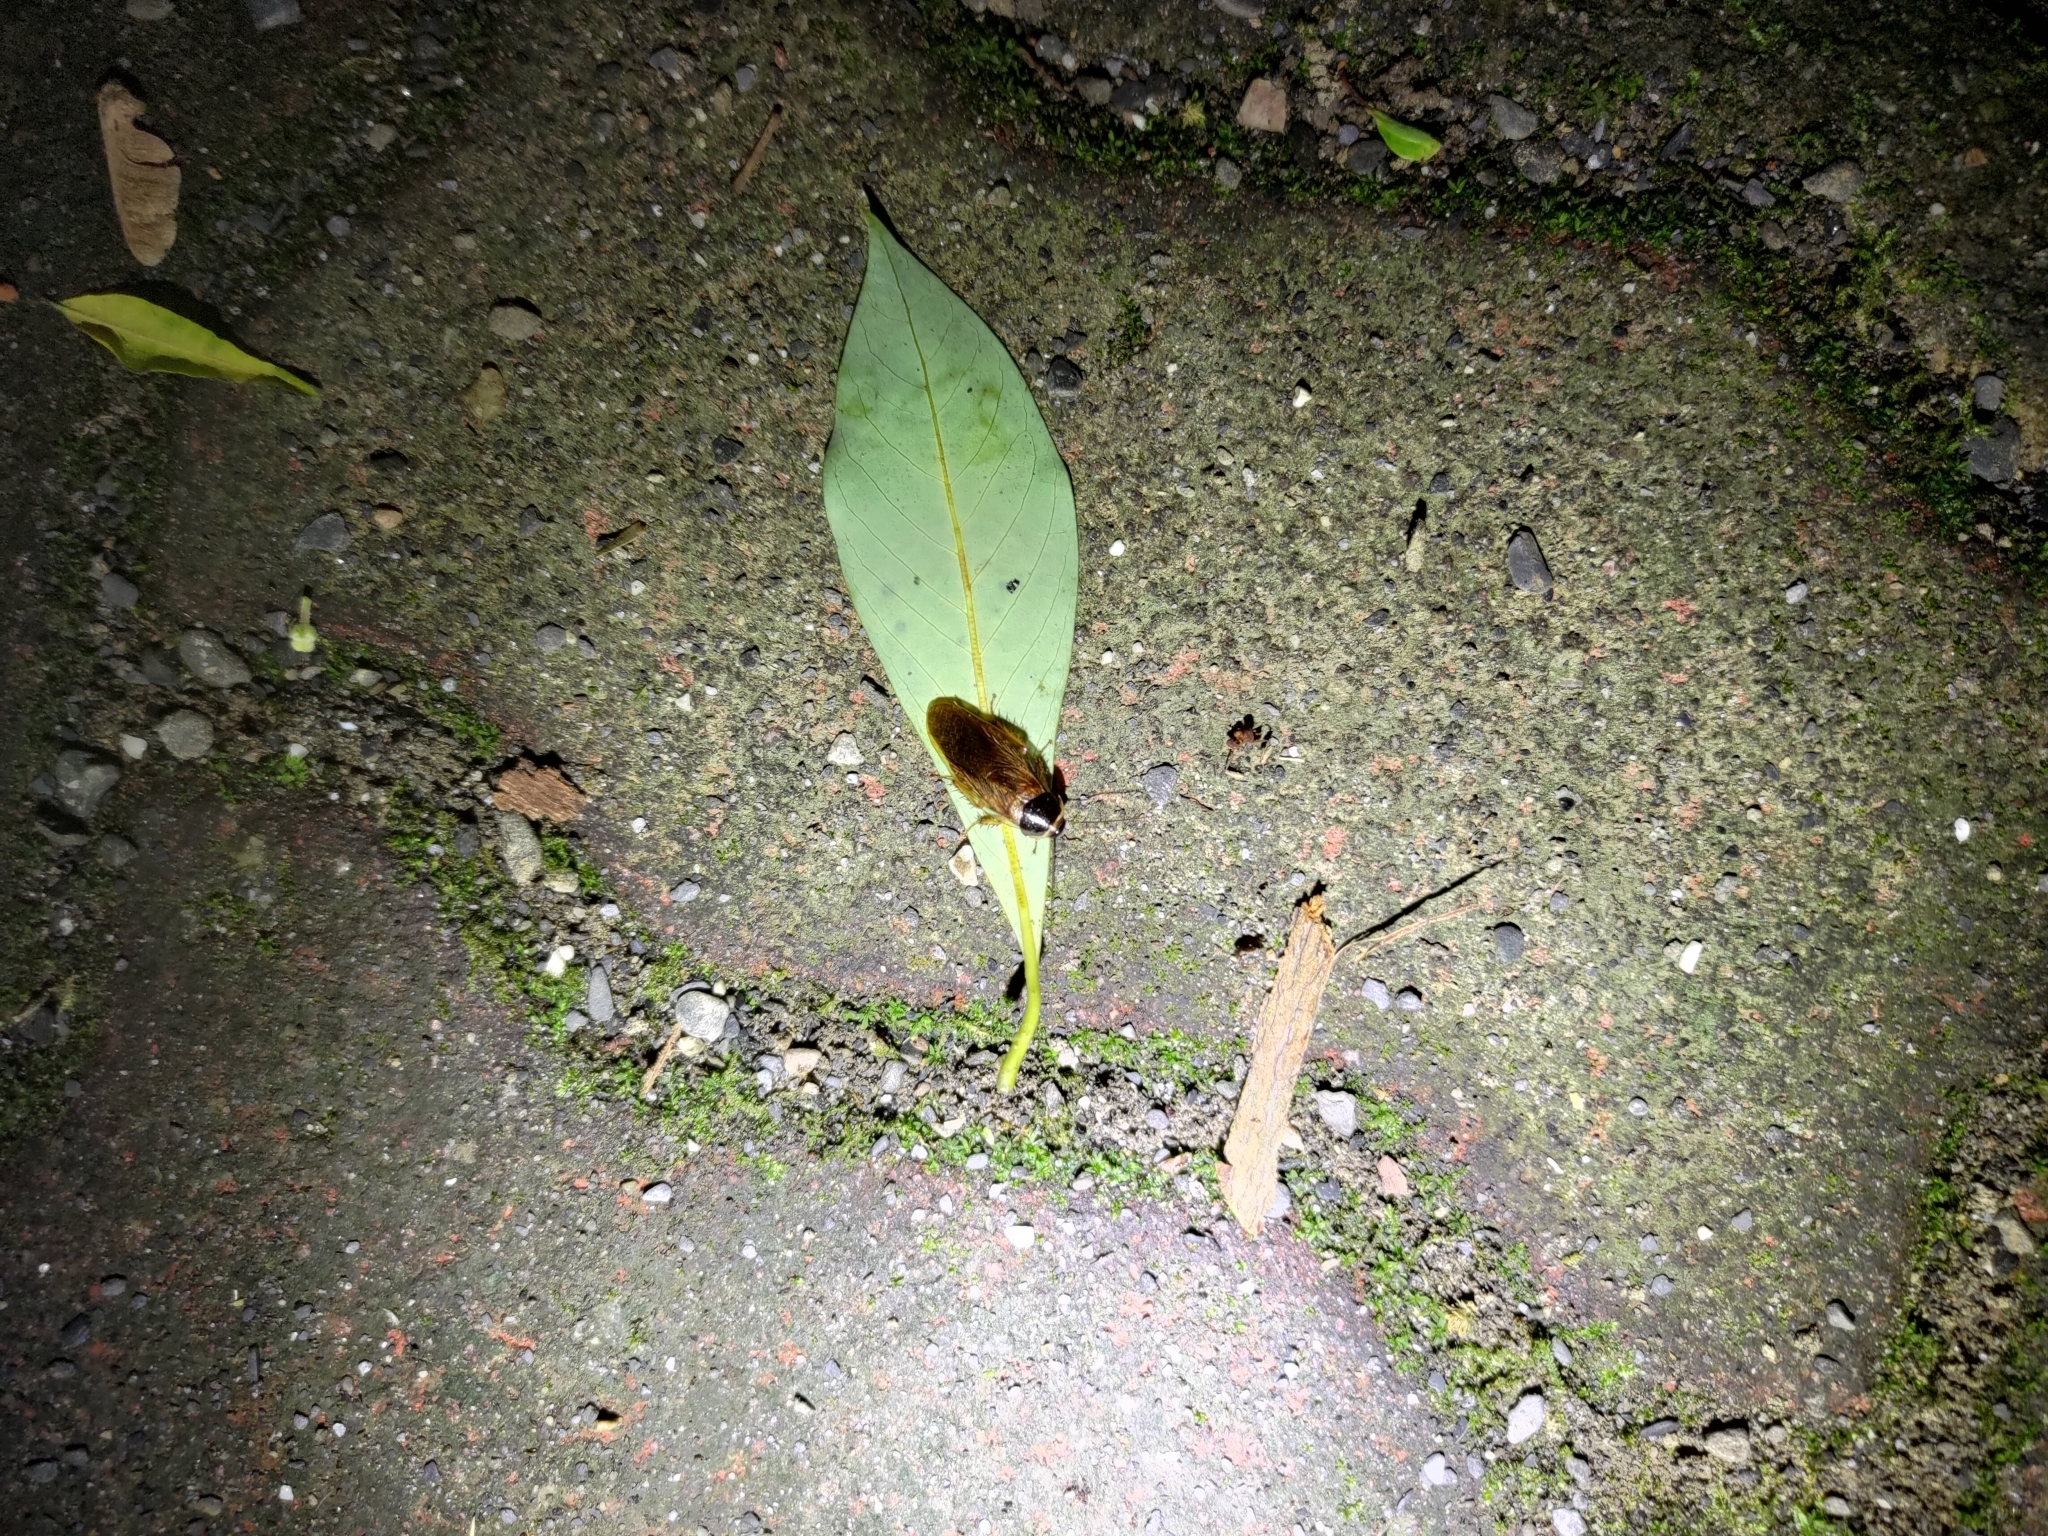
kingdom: Animalia
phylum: Arthropoda
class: Insecta
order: Blattodea
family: Blaberidae
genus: Pycnoscelus
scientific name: Pycnoscelus surinamensis
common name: Surinam cockroach
